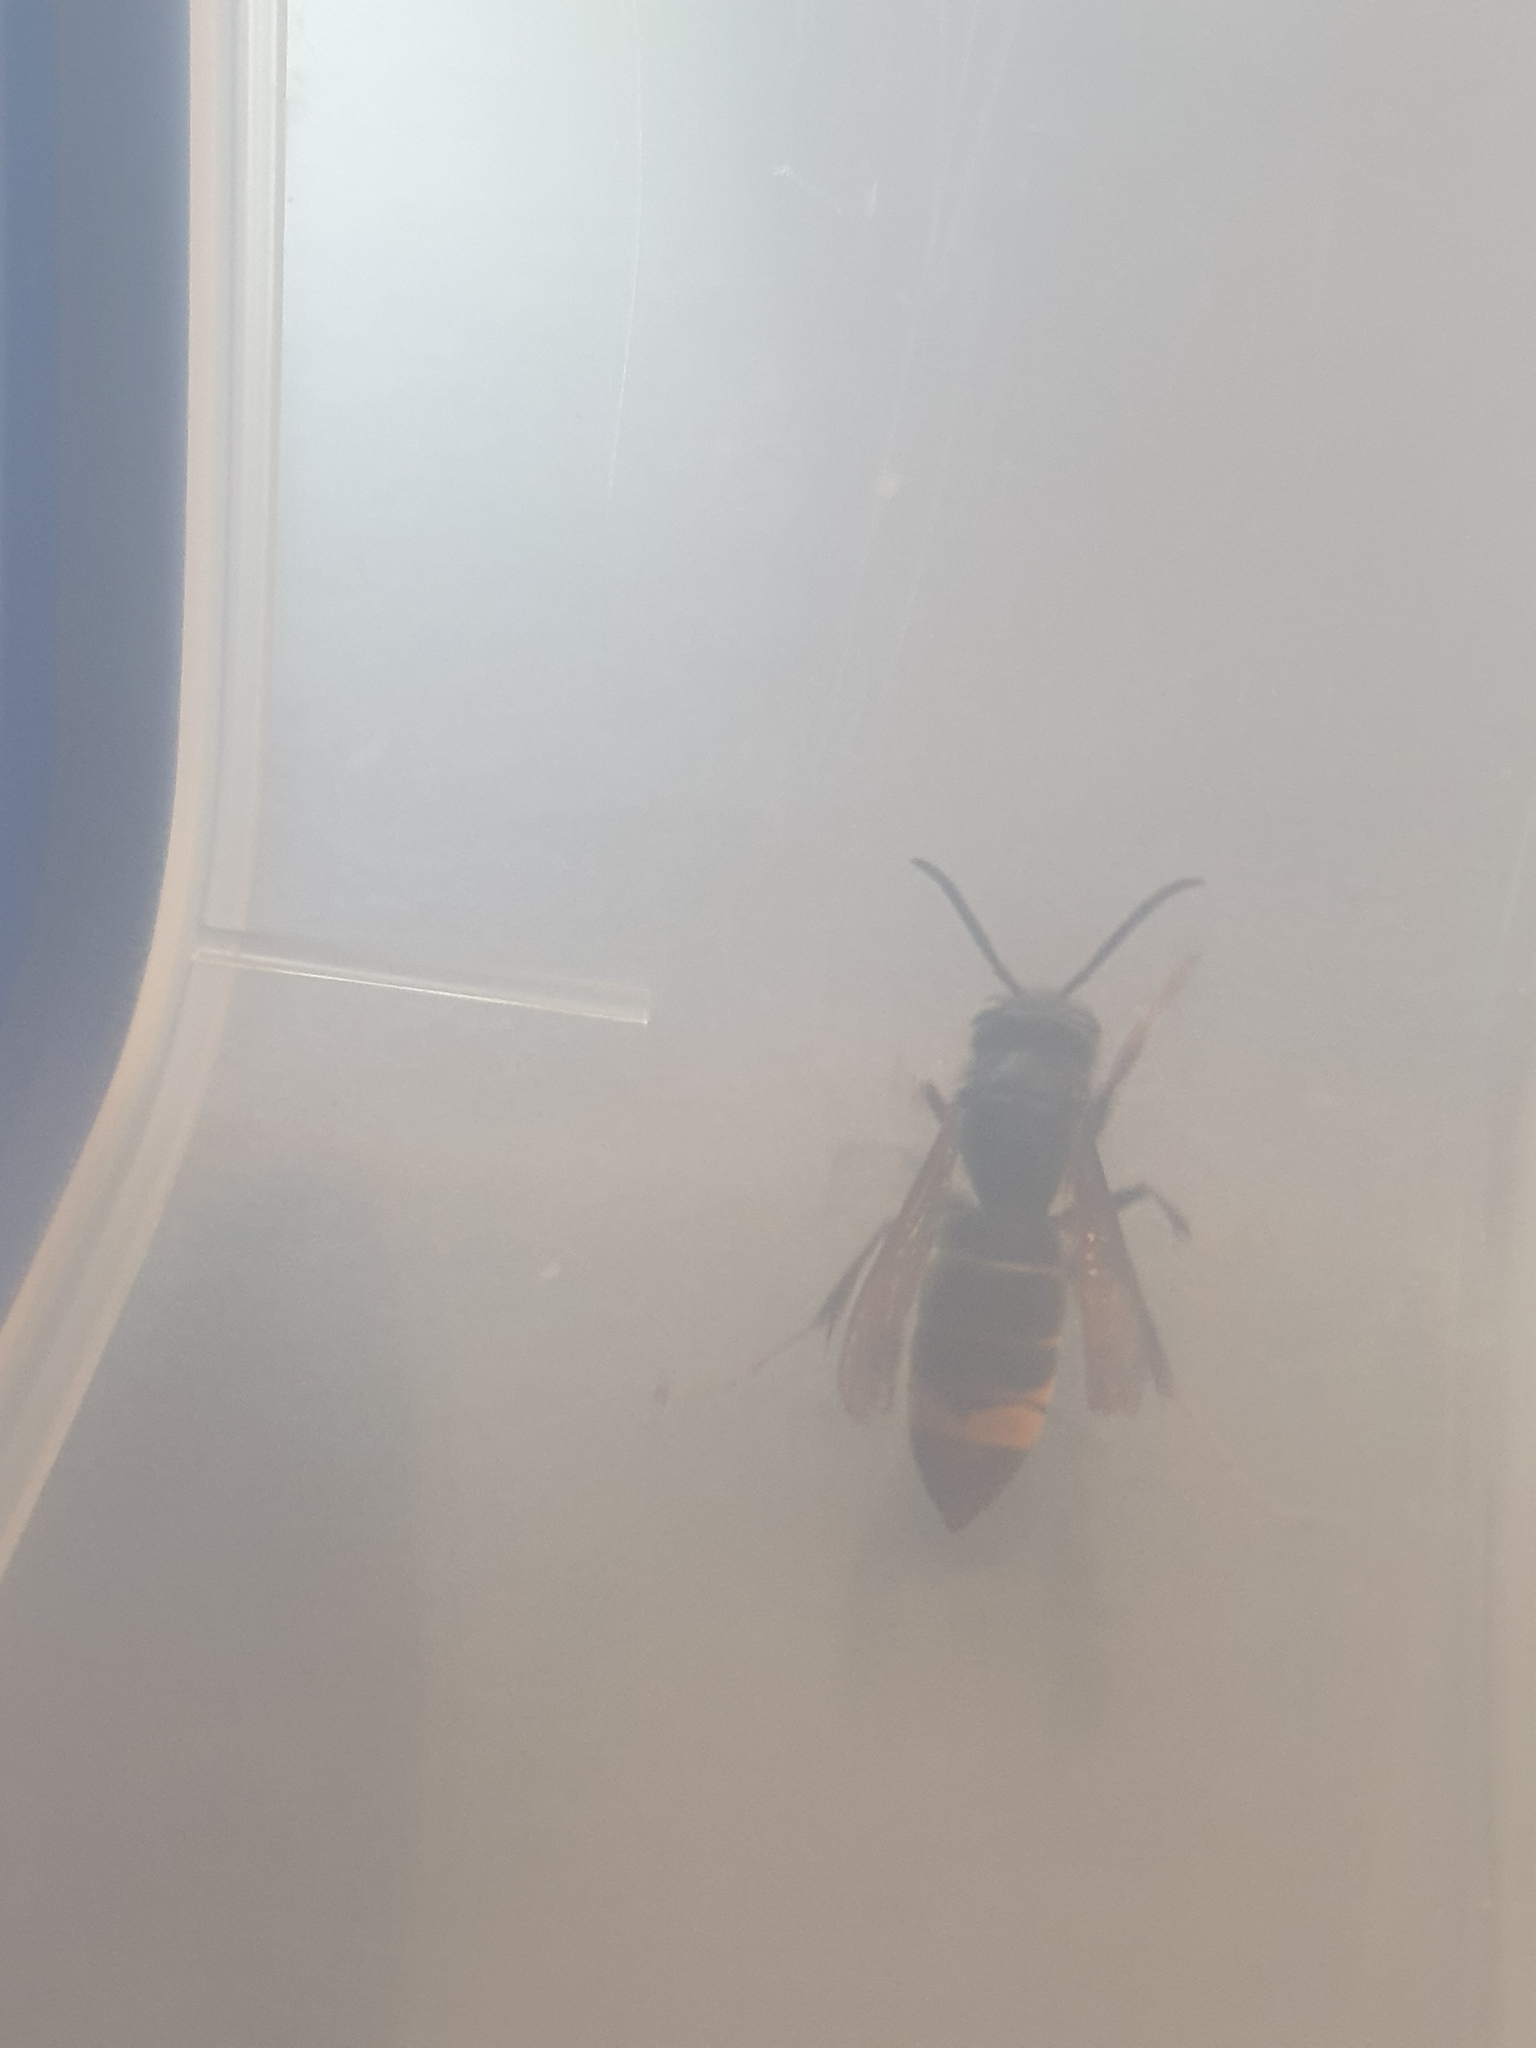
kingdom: Animalia
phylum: Arthropoda
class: Insecta
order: Hymenoptera
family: Vespidae
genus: Vespa
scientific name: Vespa velutina
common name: Asian hornet
